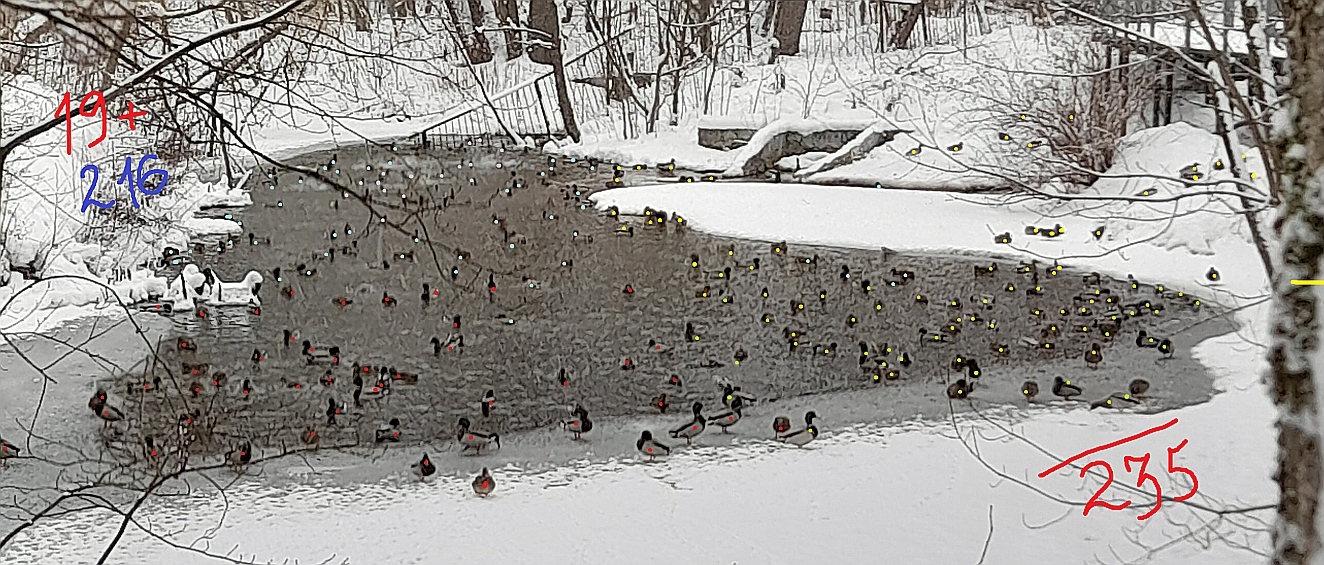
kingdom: Animalia
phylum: Chordata
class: Aves
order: Anseriformes
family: Anatidae
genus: Anas
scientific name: Anas platyrhynchos
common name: Mallard
